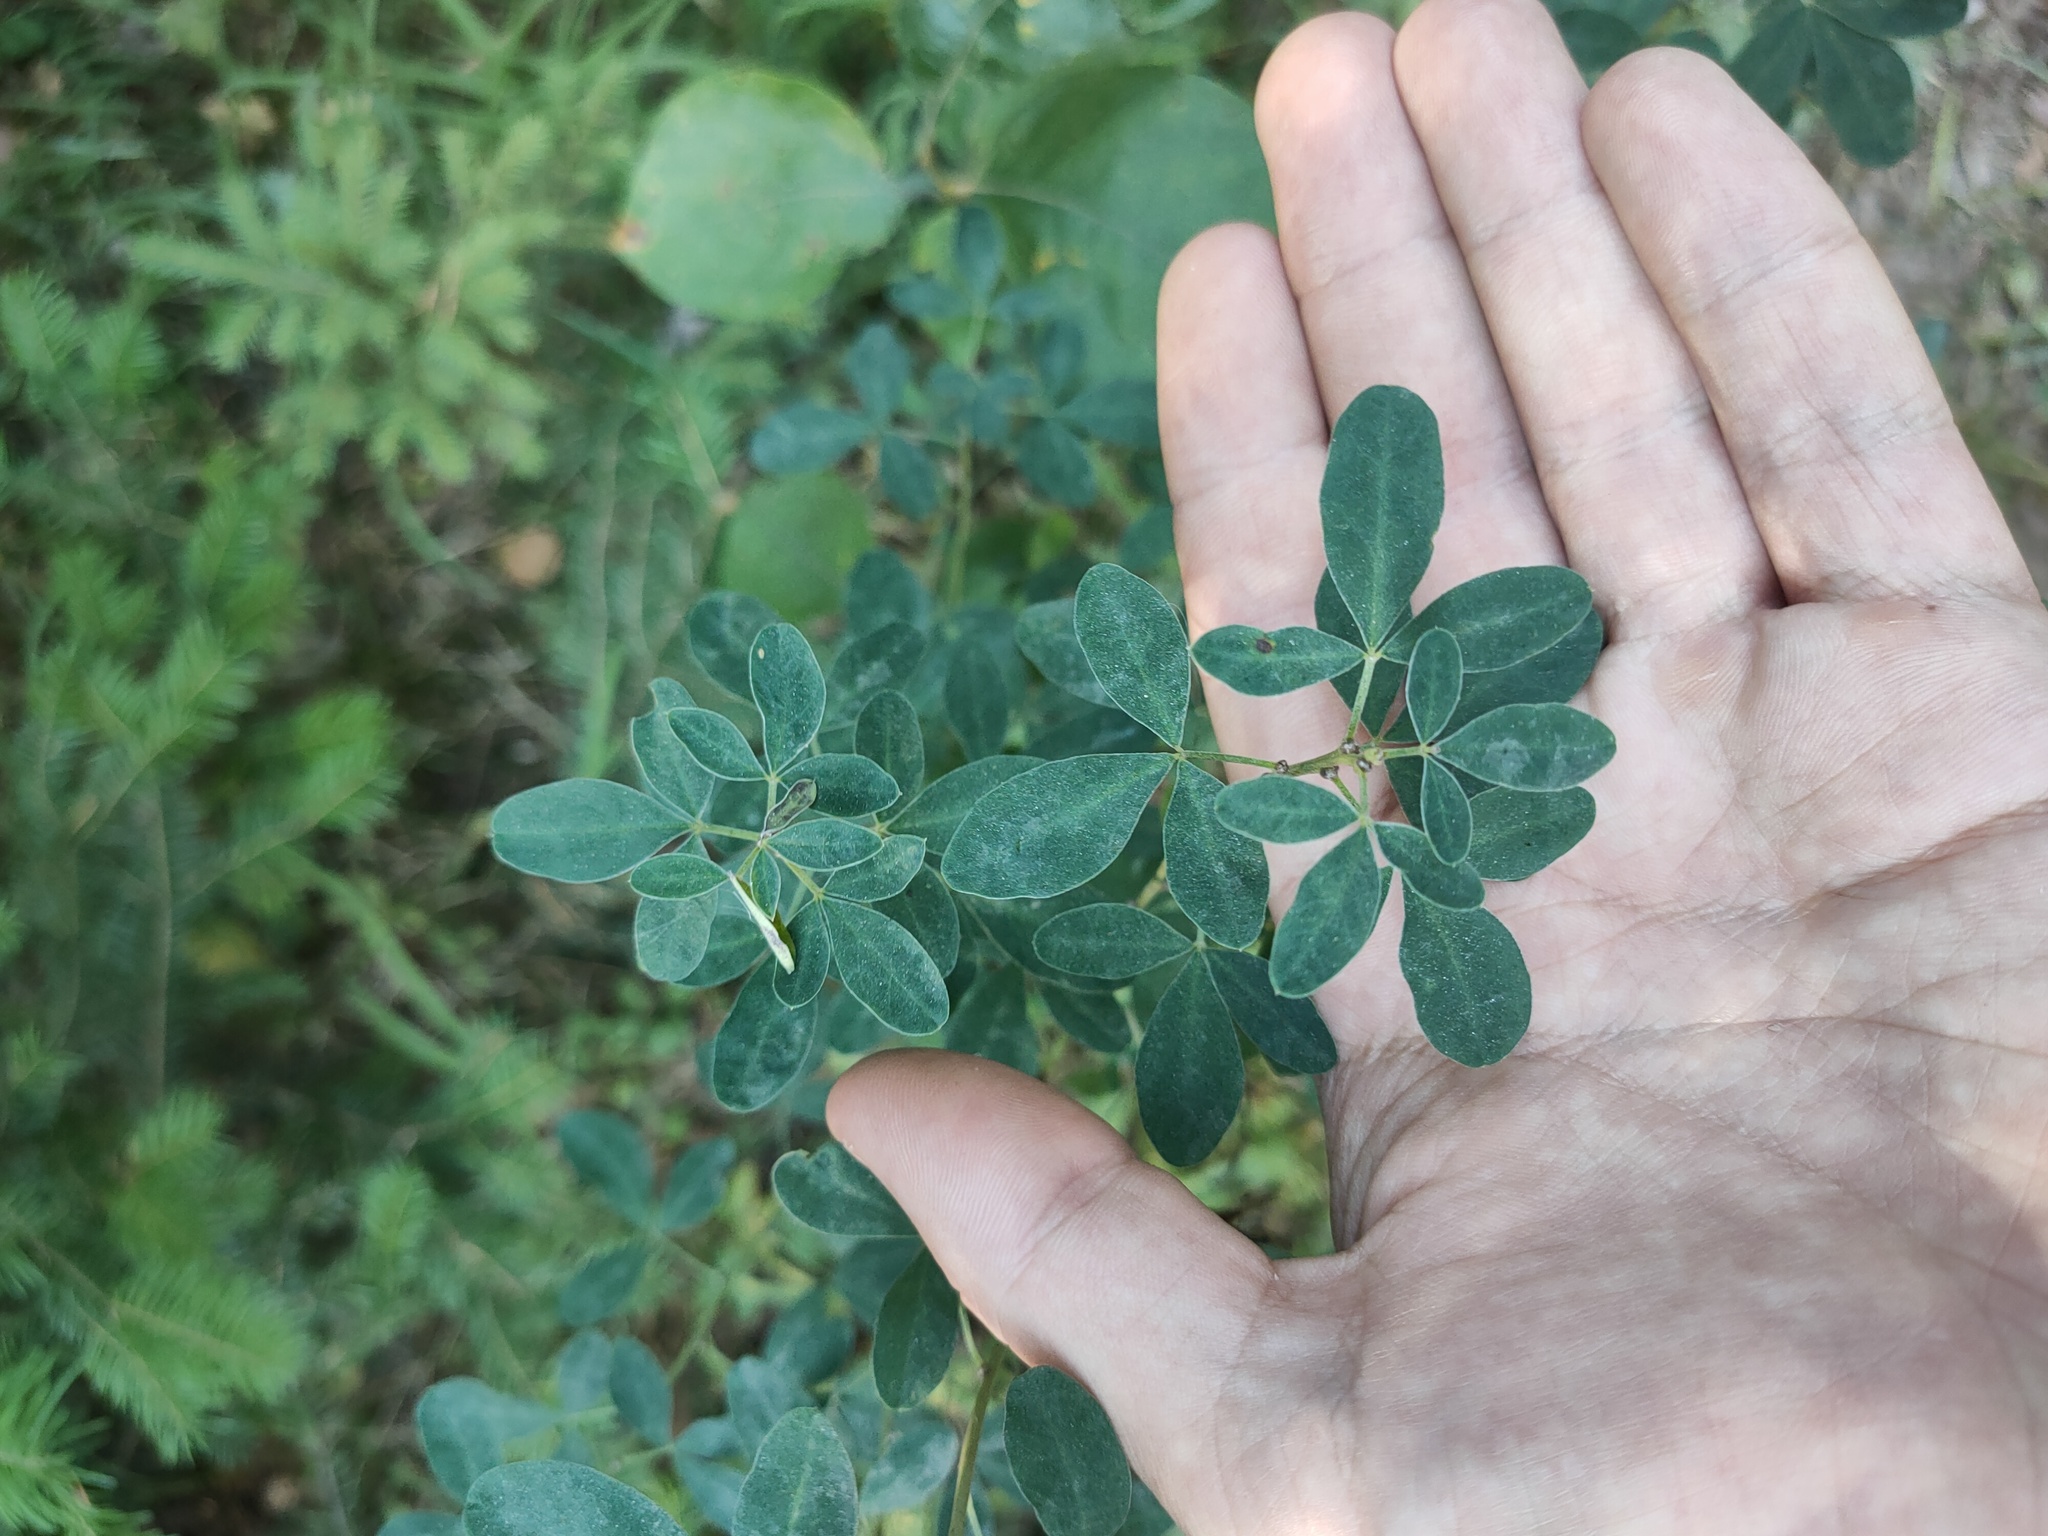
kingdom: Plantae
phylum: Tracheophyta
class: Magnoliopsida
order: Fabales
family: Fabaceae
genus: Chamaecytisus
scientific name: Chamaecytisus ruthenicus
